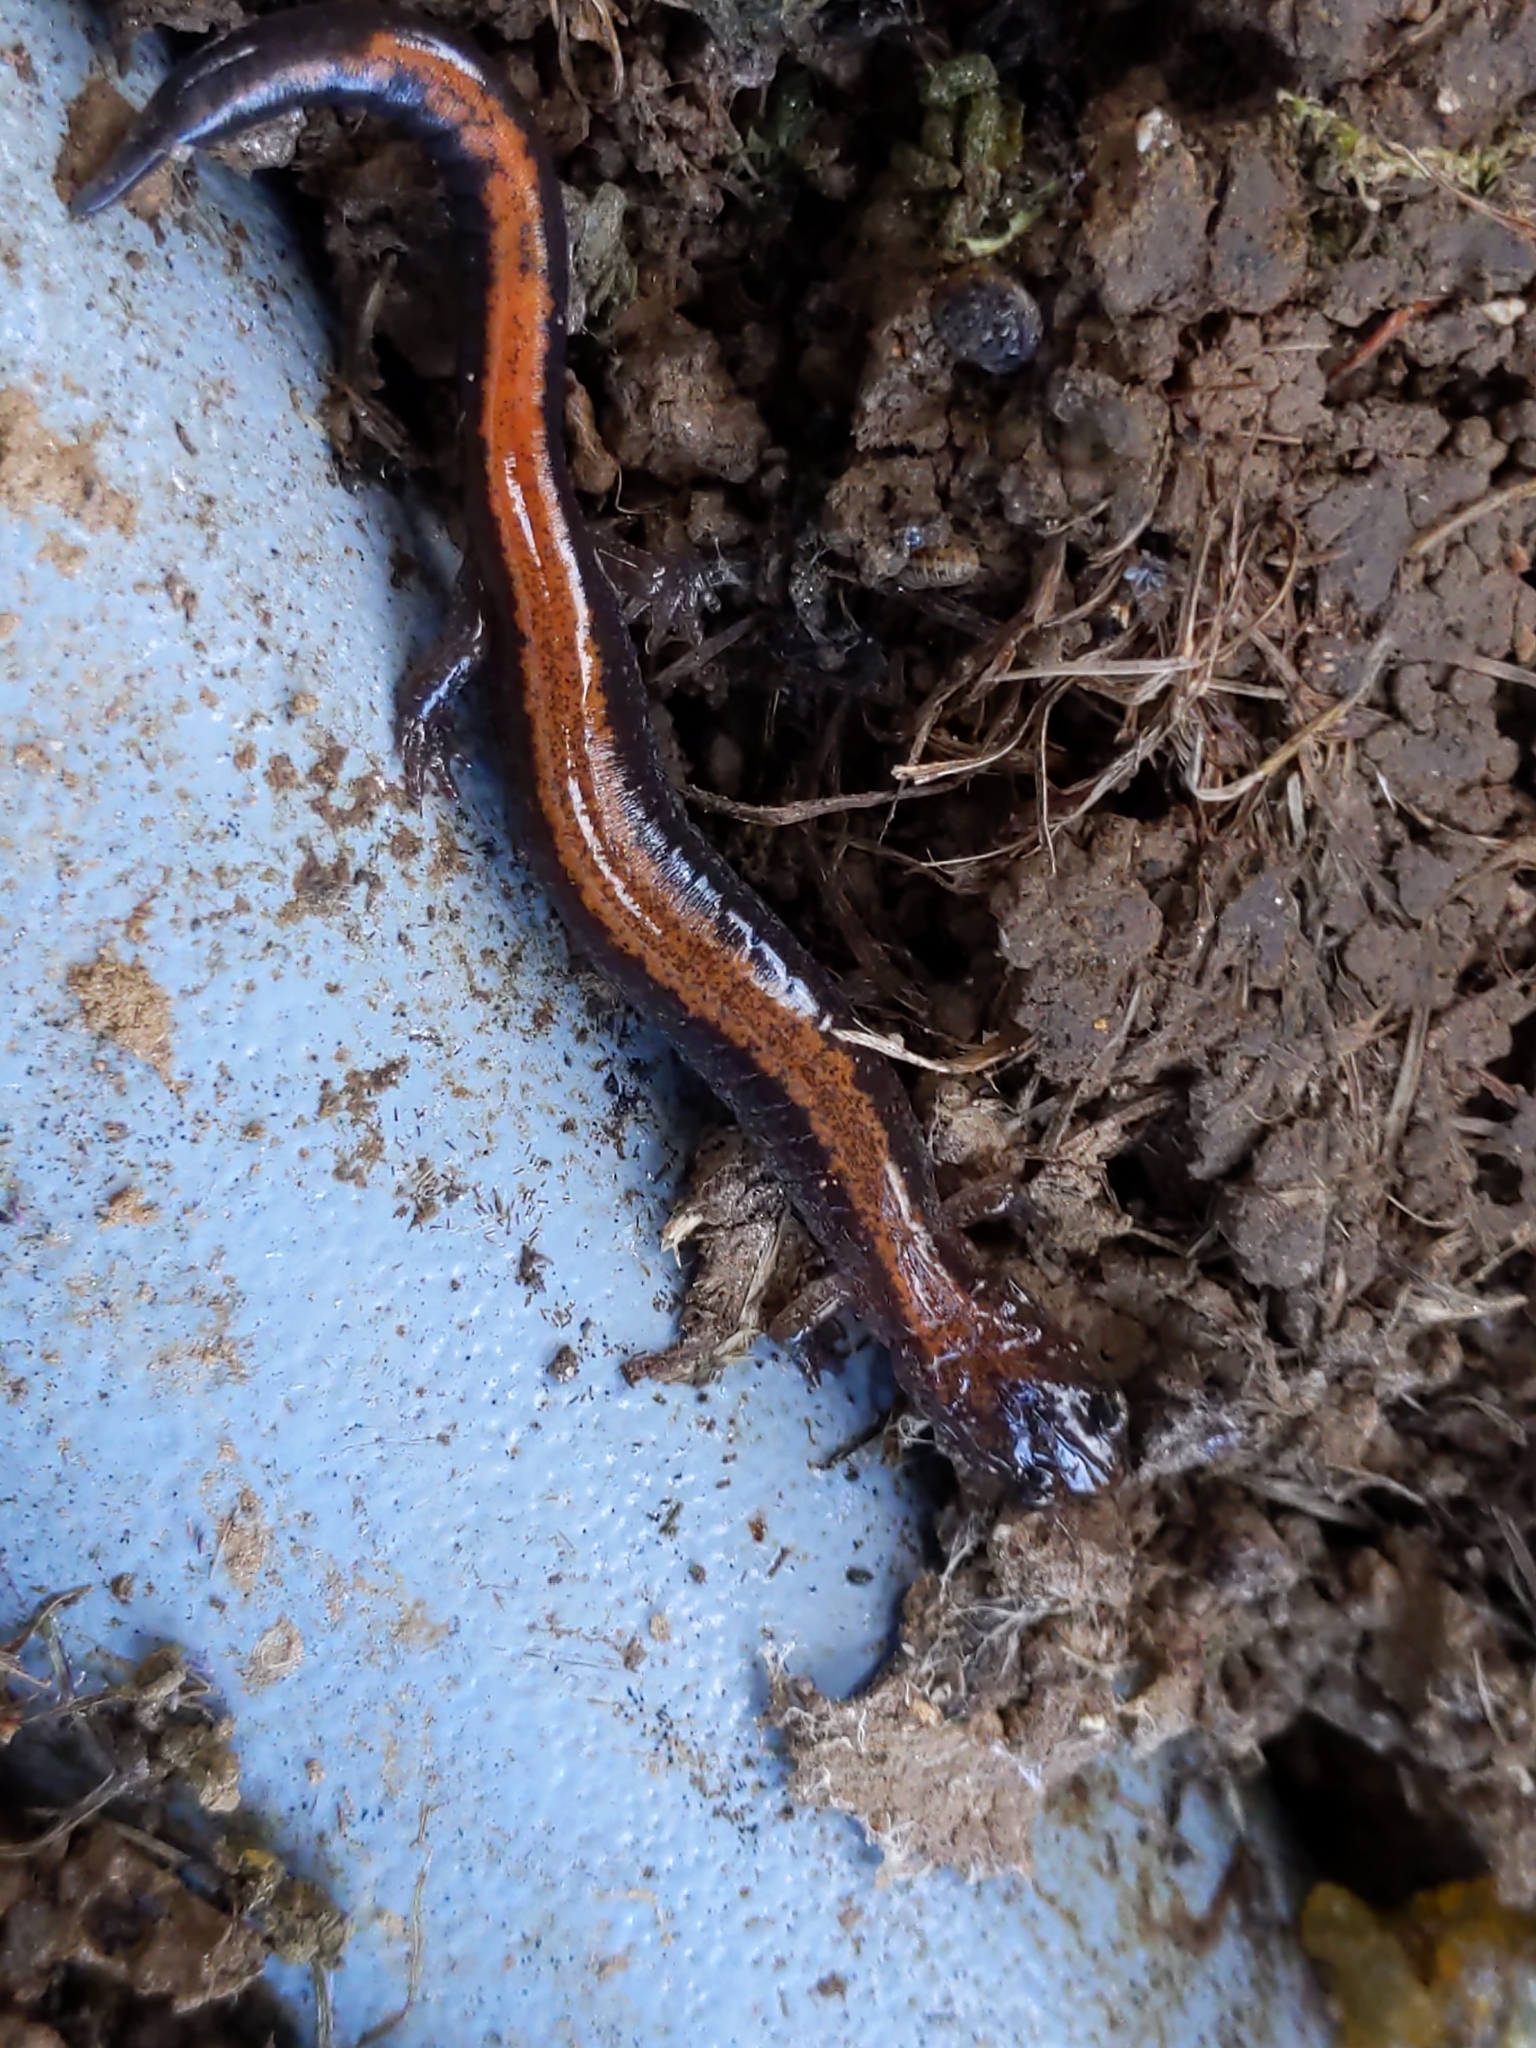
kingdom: Animalia
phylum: Chordata
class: Amphibia
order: Caudata
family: Plethodontidae
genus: Plethodon
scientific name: Plethodon cinereus
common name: Redback salamander
